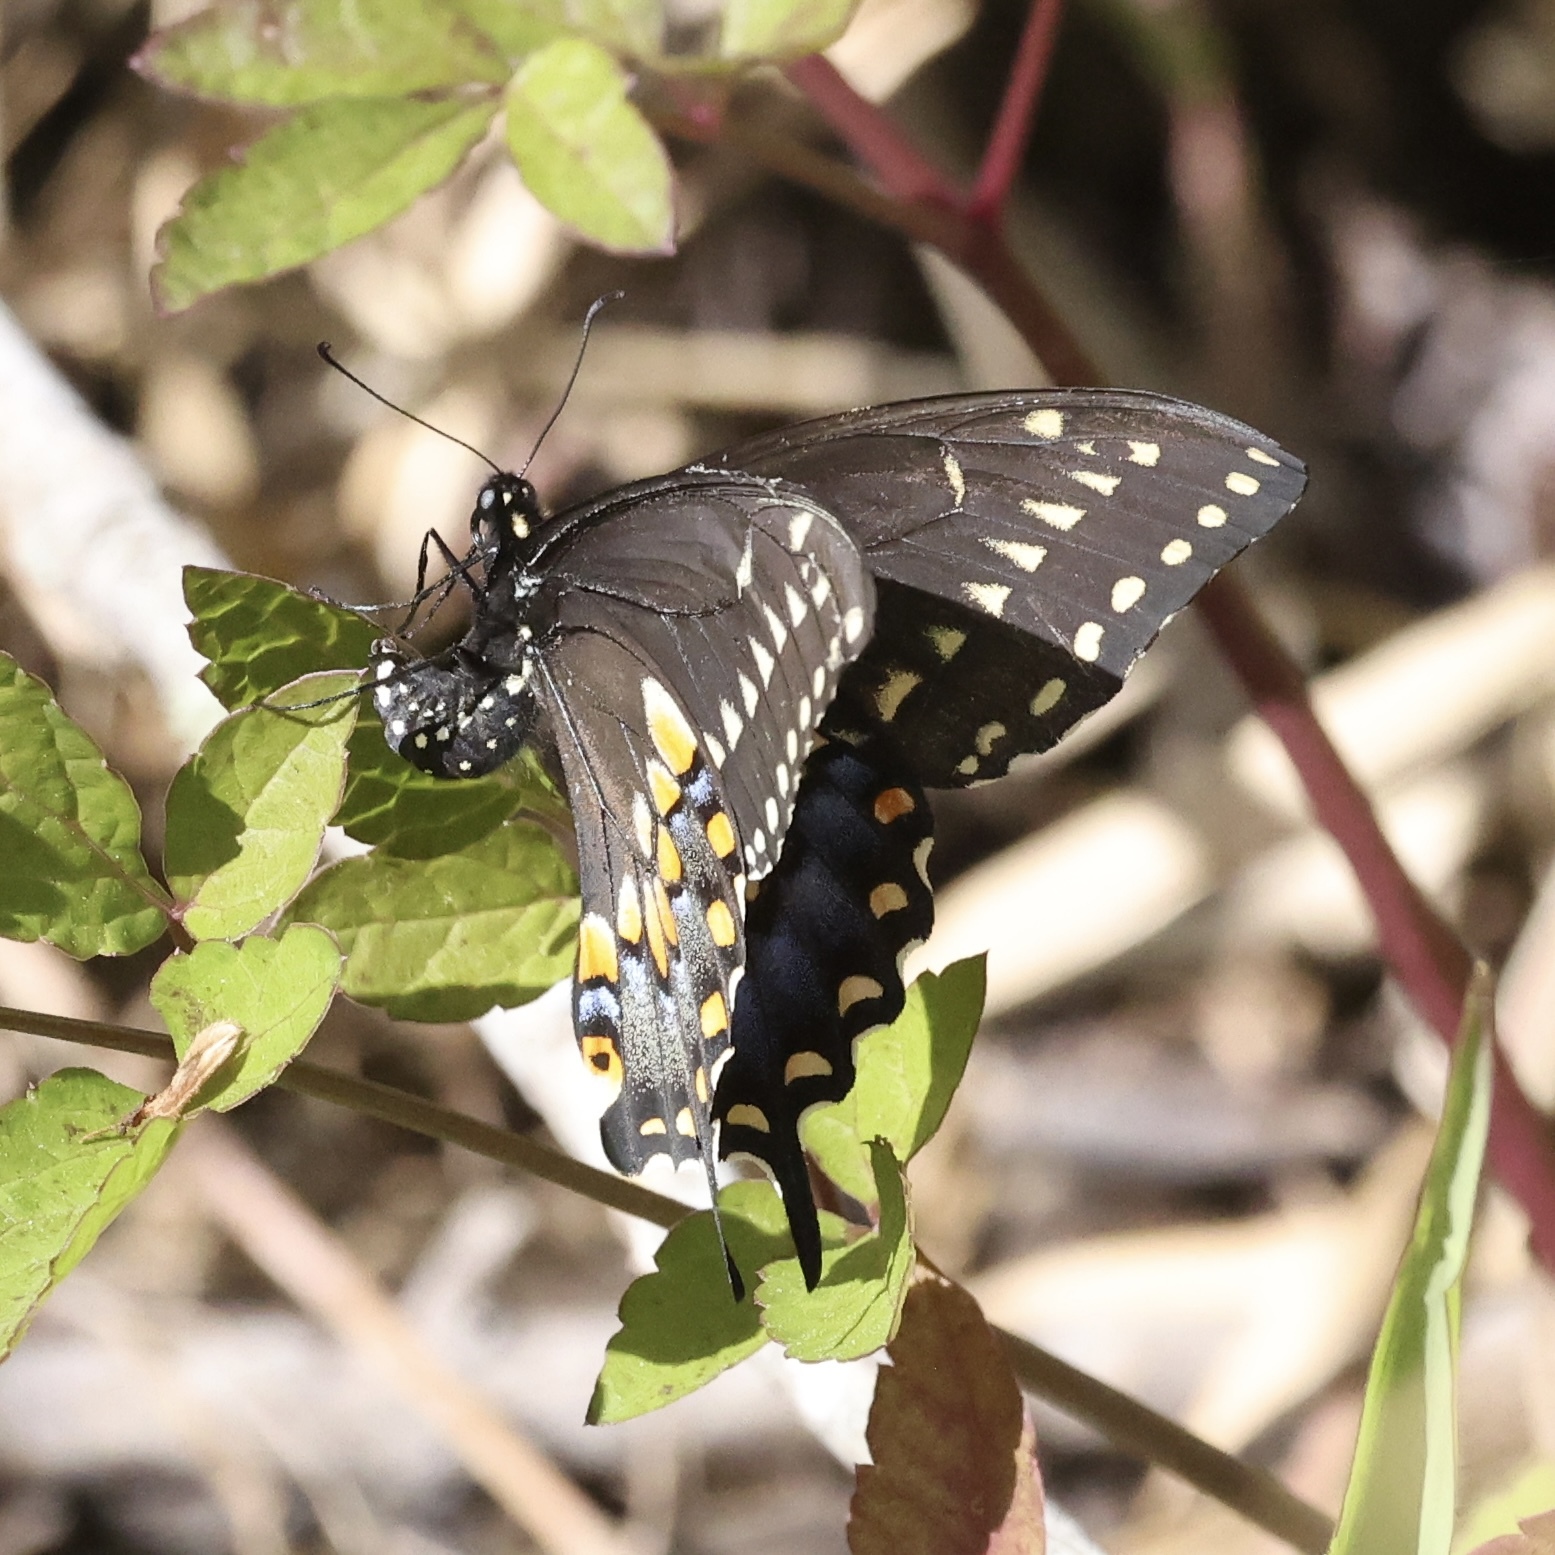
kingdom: Animalia
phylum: Arthropoda
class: Insecta
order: Lepidoptera
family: Papilionidae
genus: Papilio
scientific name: Papilio polyxenes
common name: Black swallowtail
